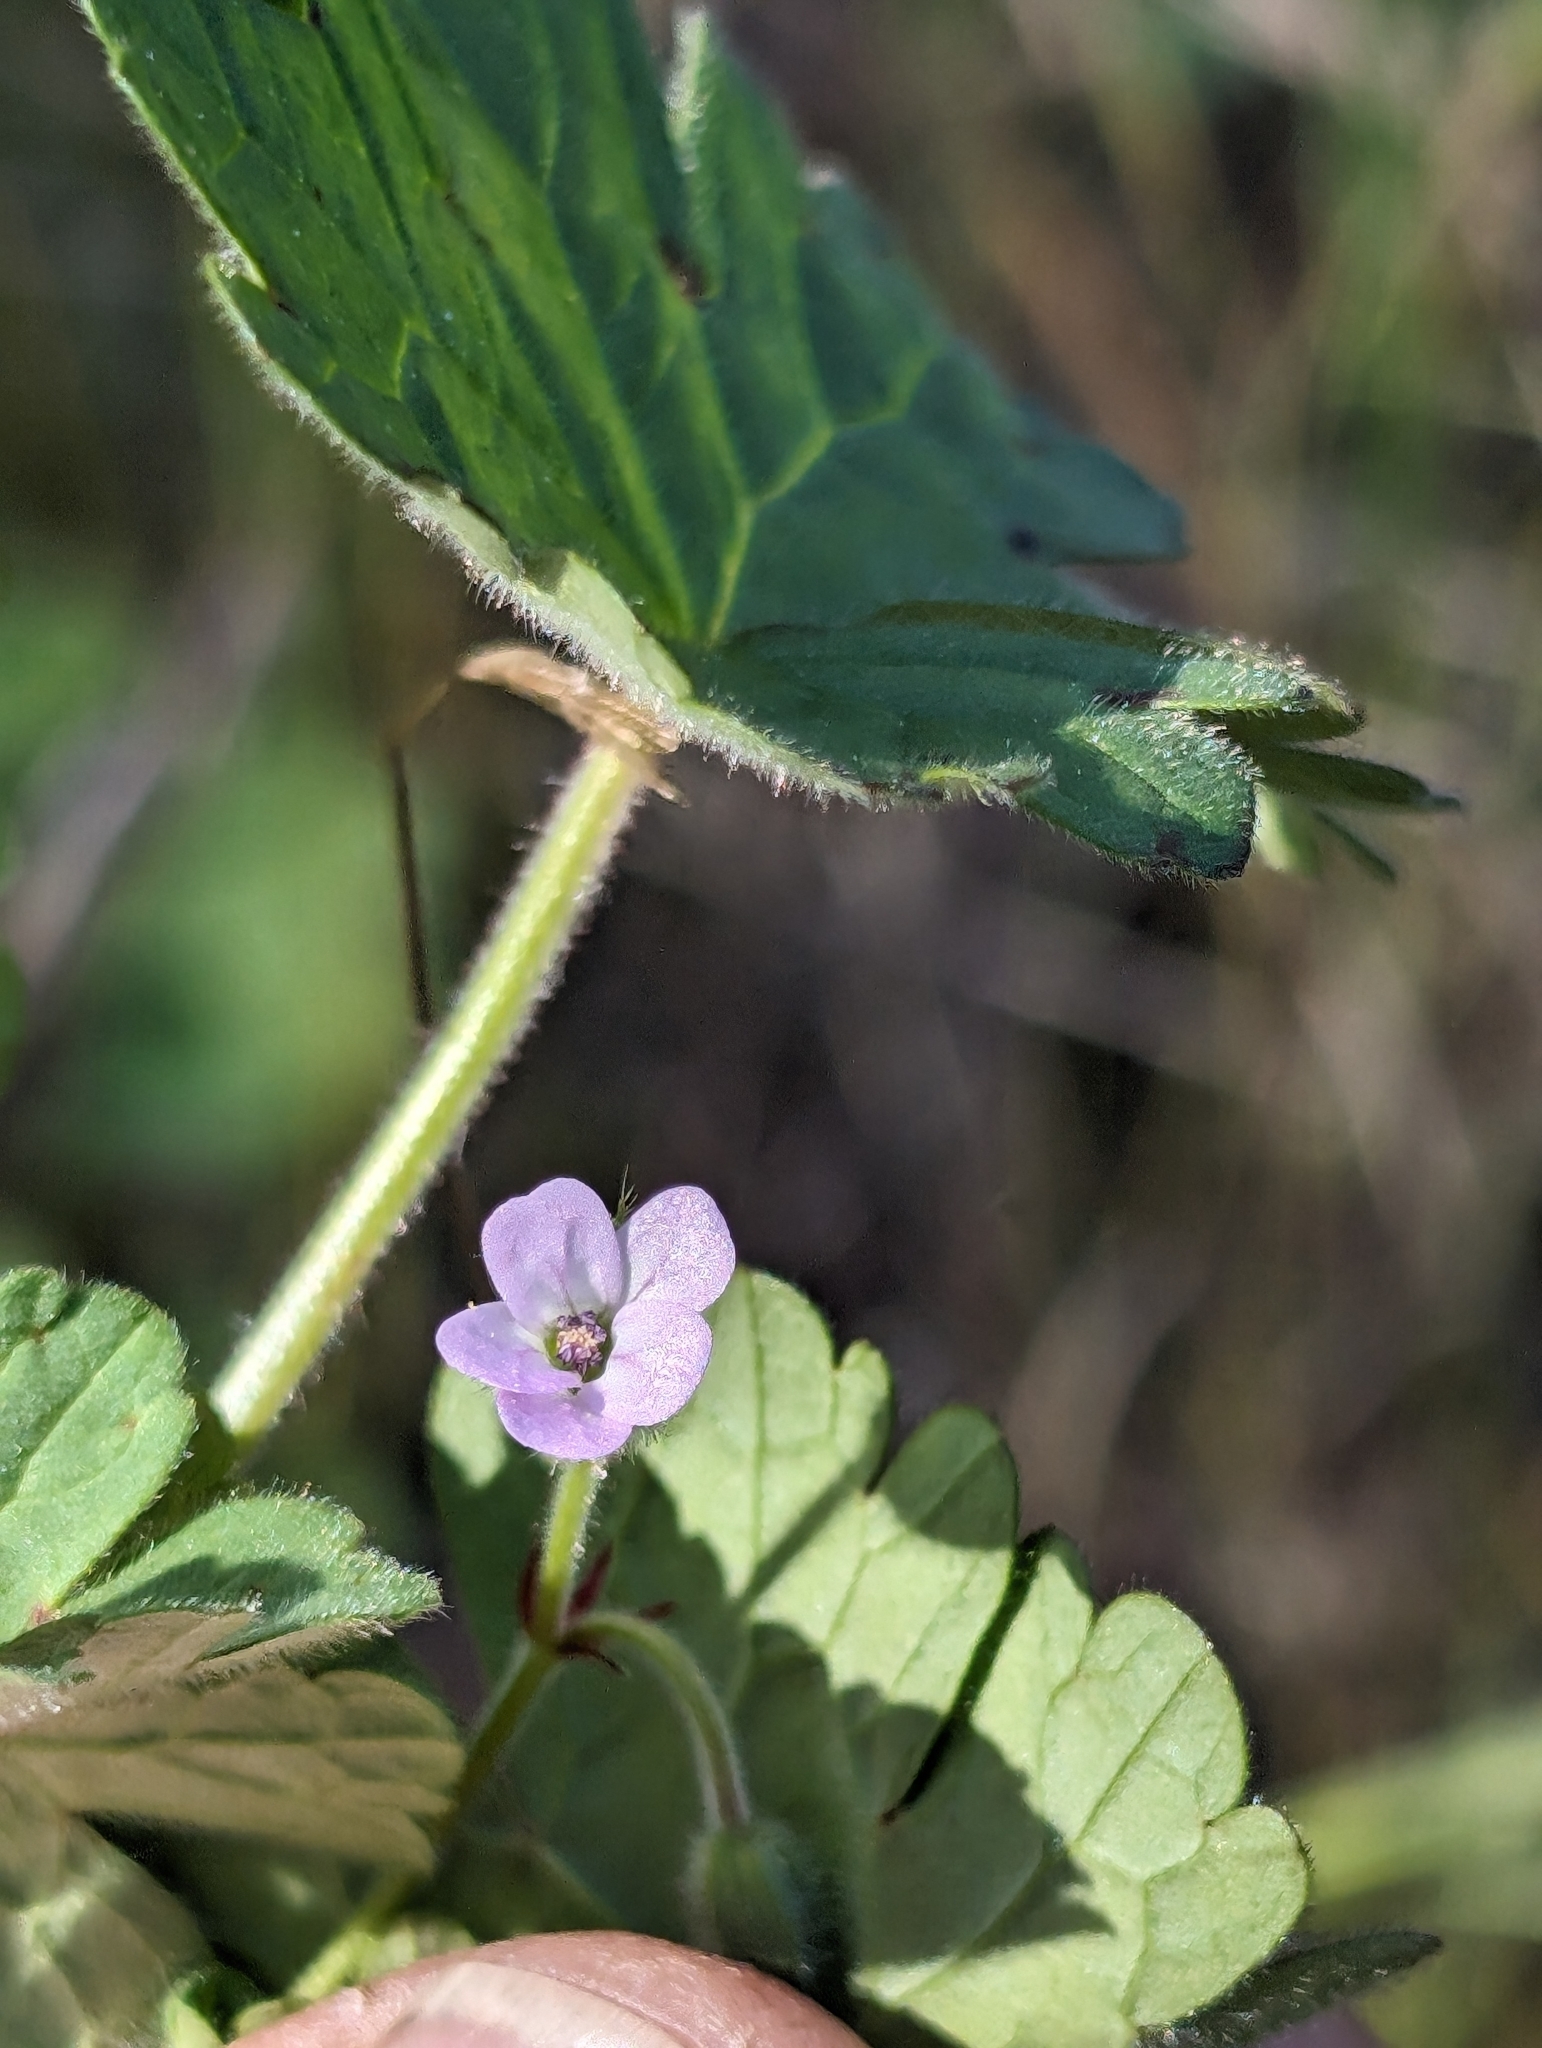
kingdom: Plantae
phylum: Tracheophyta
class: Magnoliopsida
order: Geraniales
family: Geraniaceae
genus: Geranium
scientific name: Geranium rotundifolium
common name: Round-leaved crane's-bill
